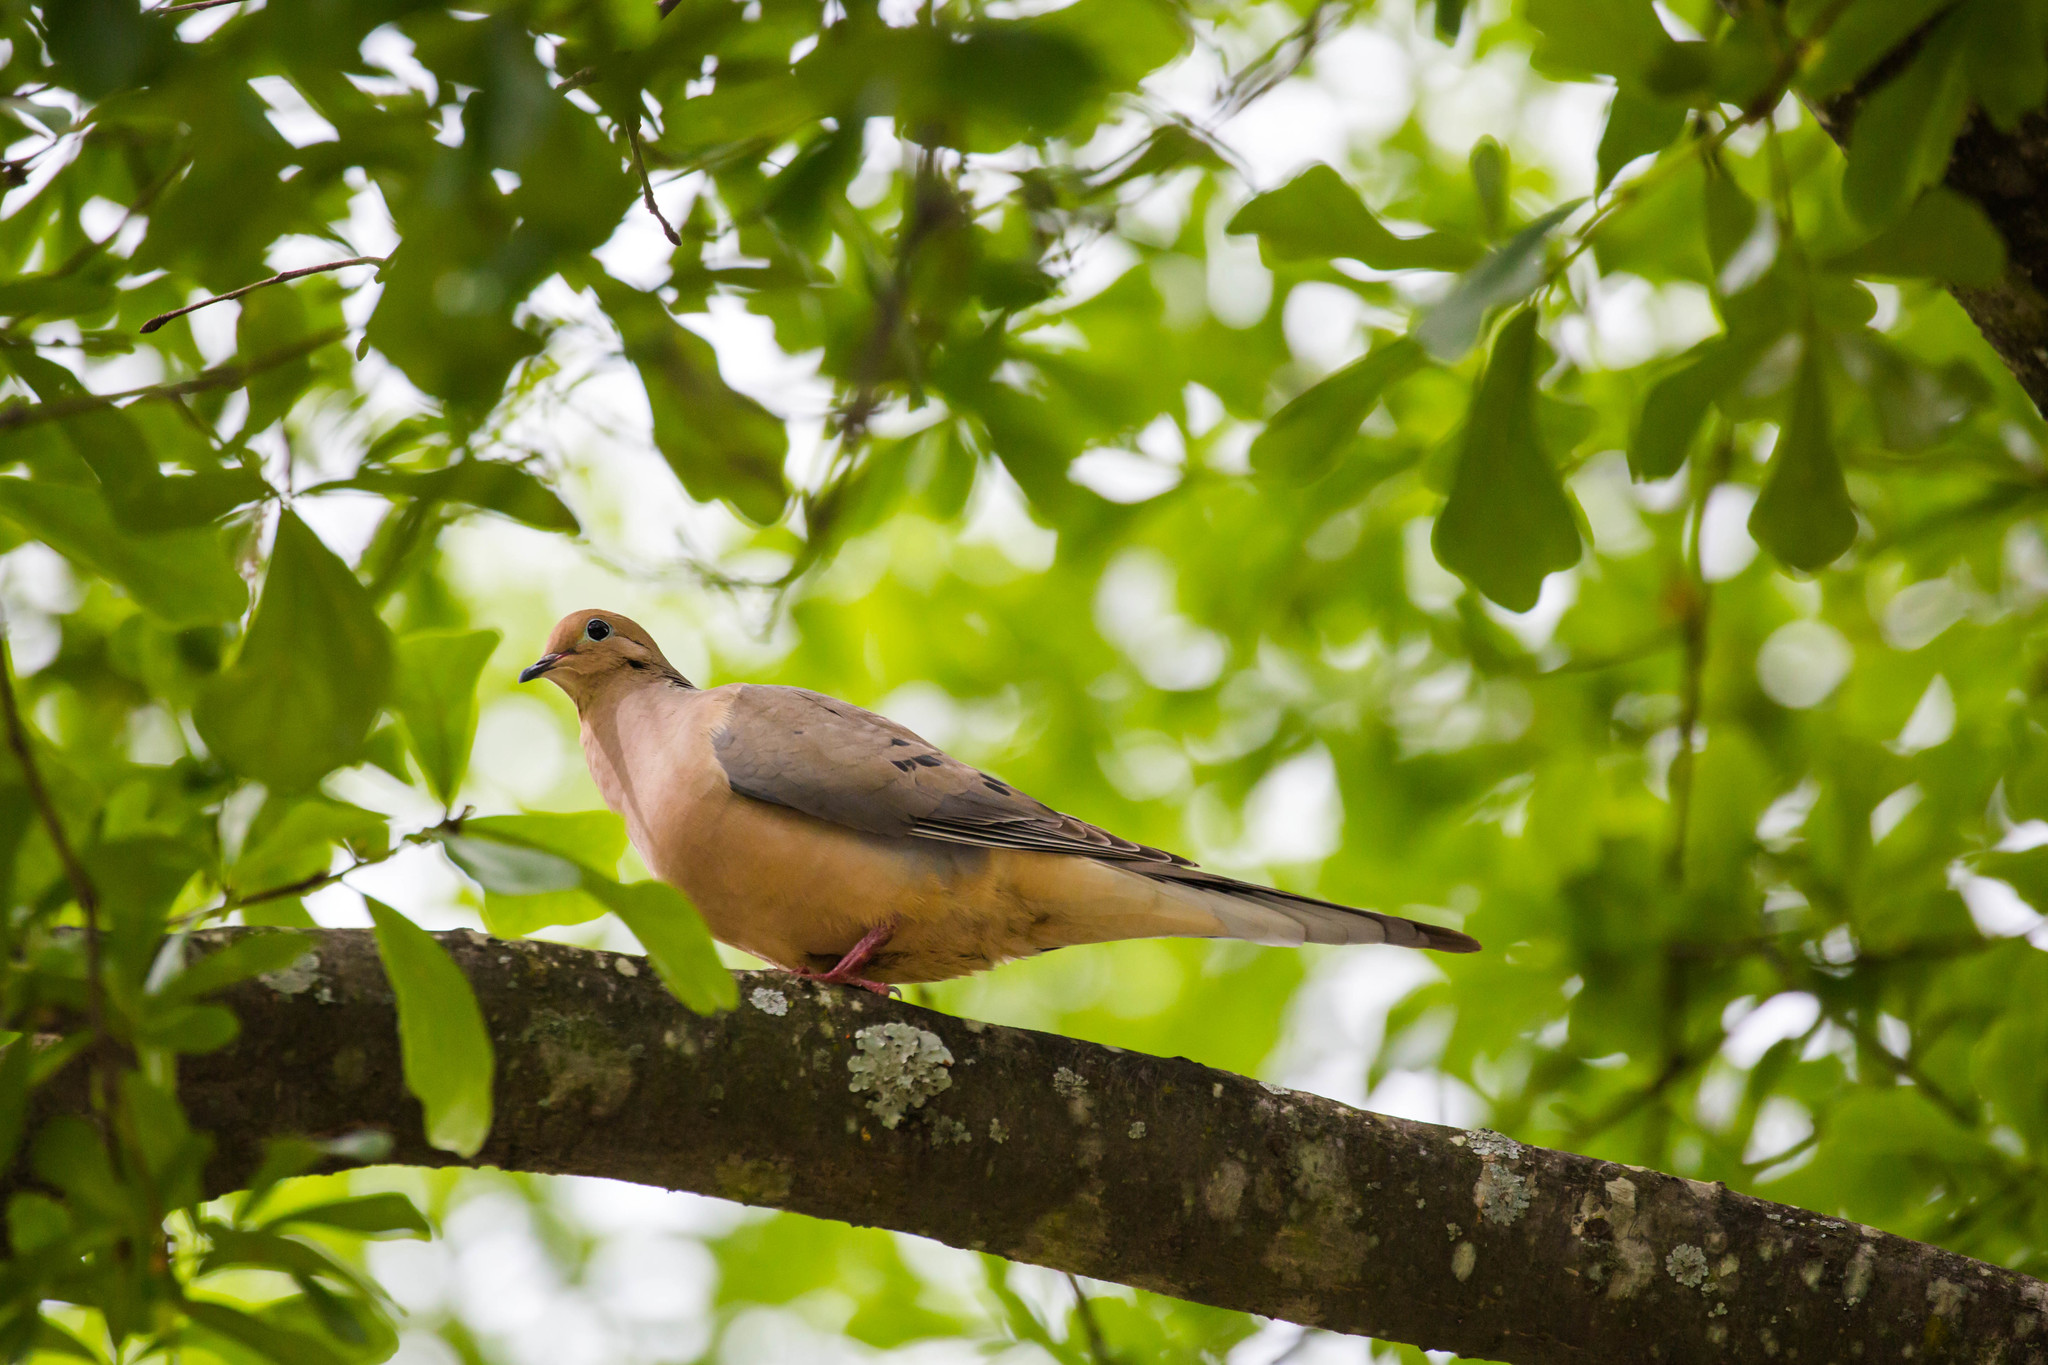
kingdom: Animalia
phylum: Chordata
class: Aves
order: Columbiformes
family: Columbidae
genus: Zenaida
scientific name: Zenaida macroura
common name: Mourning dove
